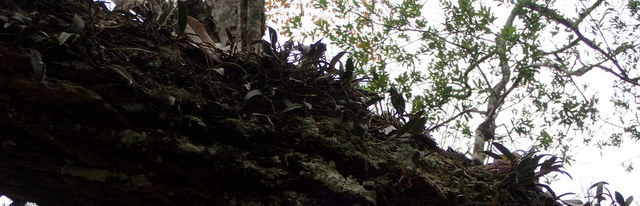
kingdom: Plantae
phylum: Tracheophyta
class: Liliopsida
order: Asparagales
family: Orchidaceae
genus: Epidendrum
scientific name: Epidendrum conopseum
